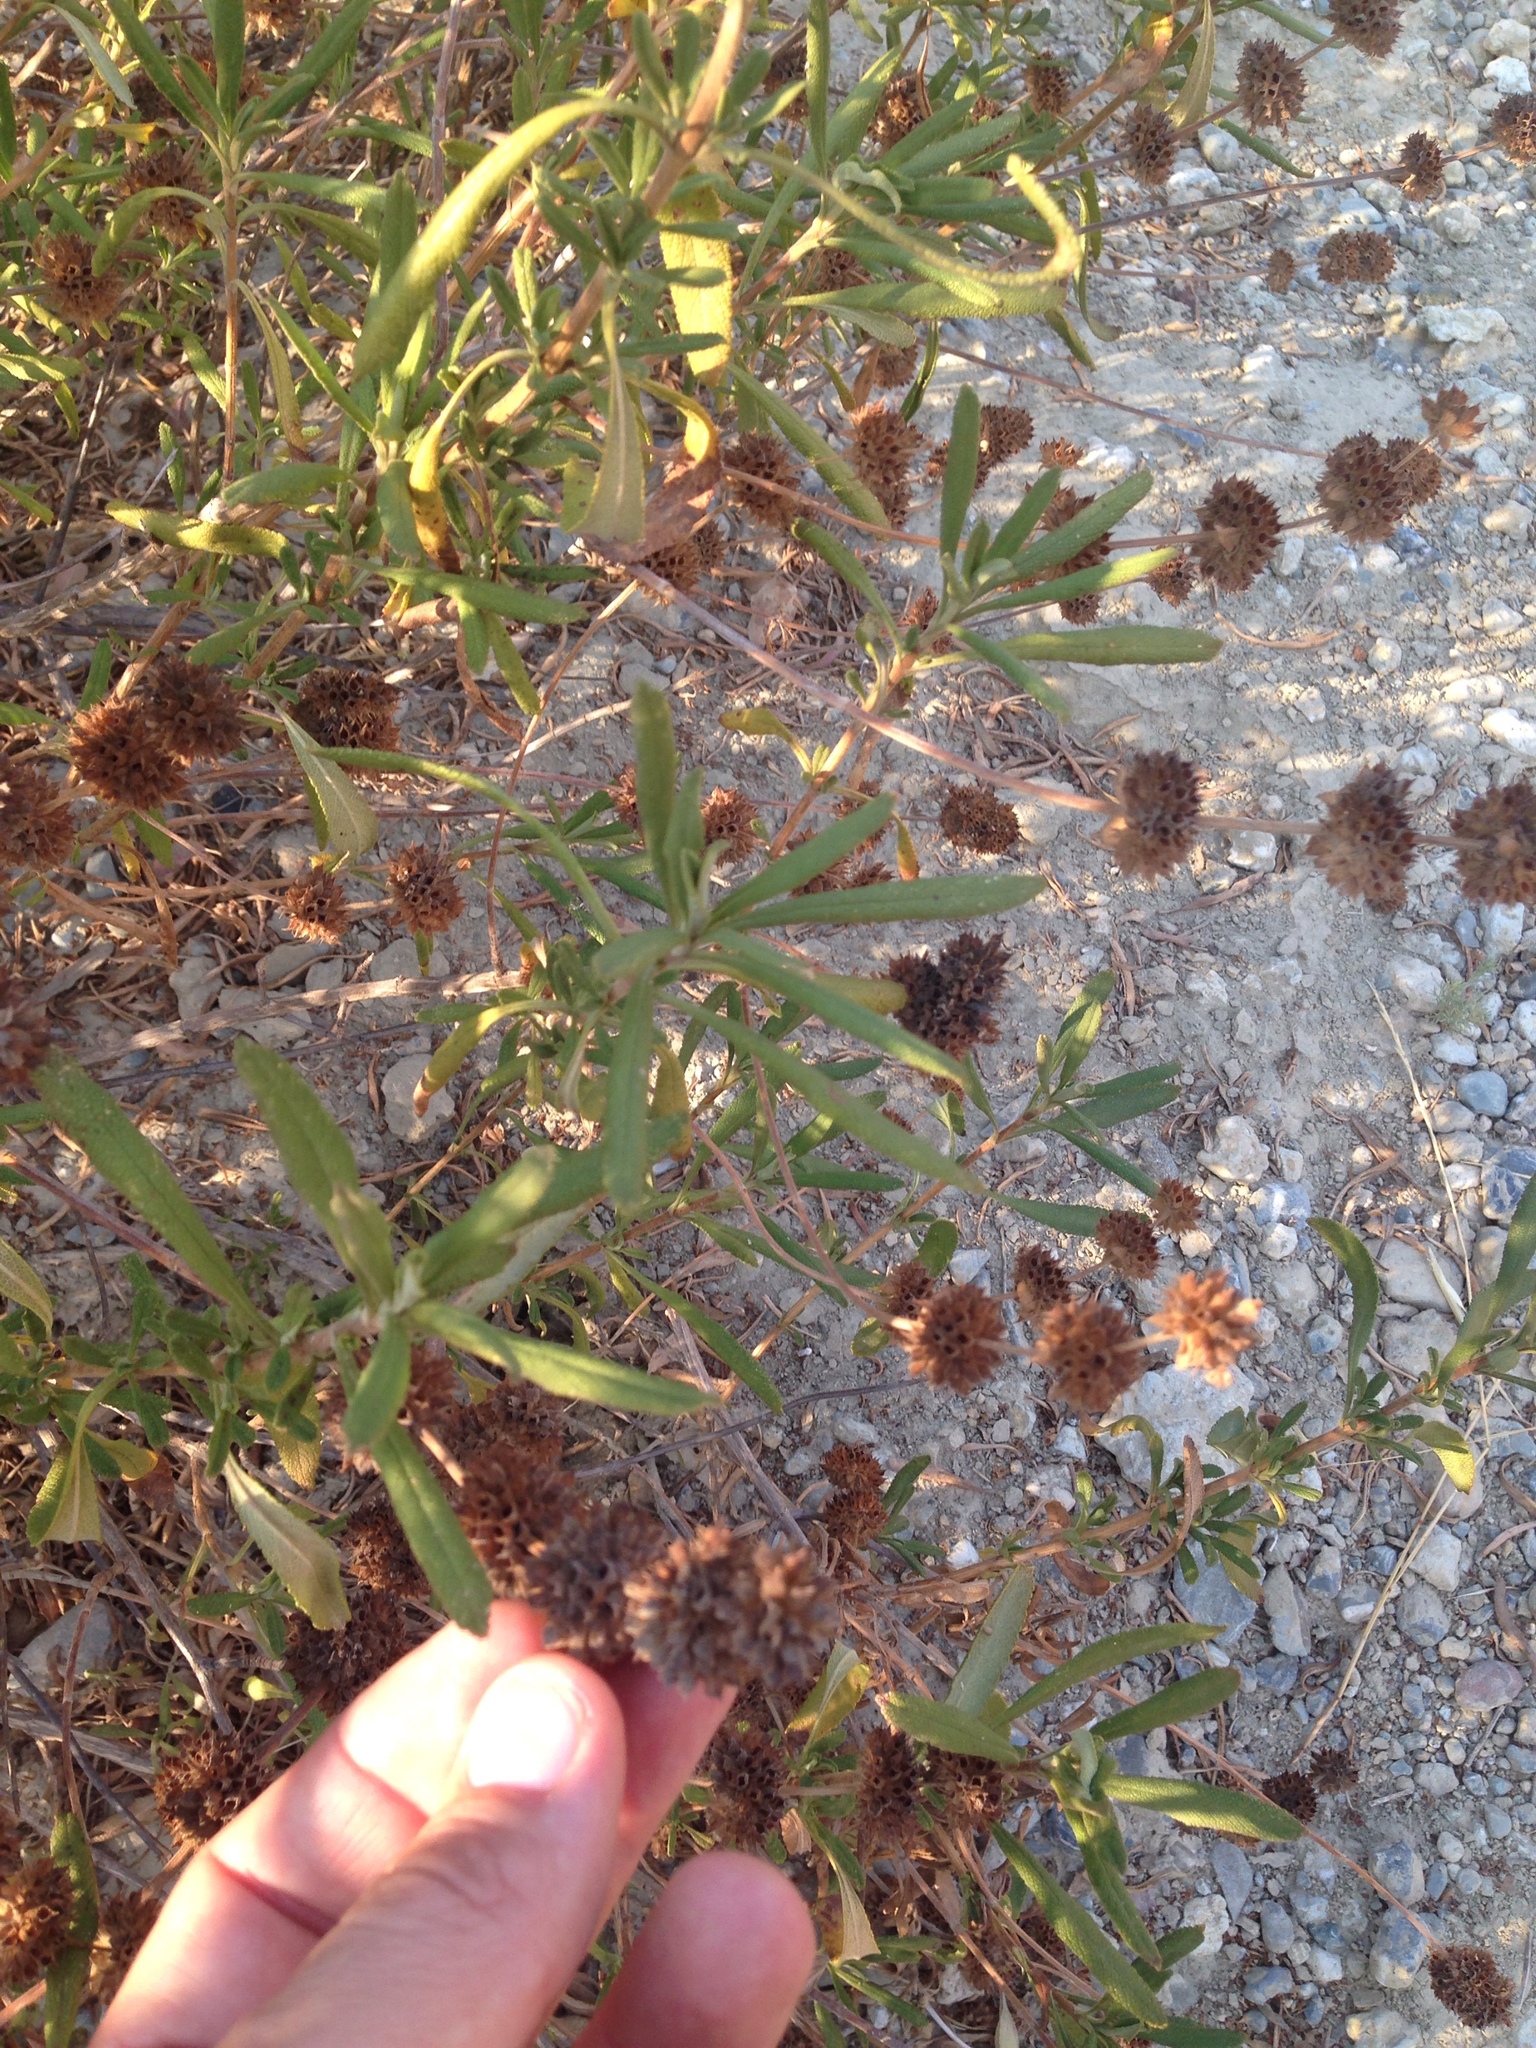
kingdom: Plantae
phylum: Tracheophyta
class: Magnoliopsida
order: Lamiales
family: Lamiaceae
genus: Salvia
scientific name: Salvia mellifera
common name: Black sage
